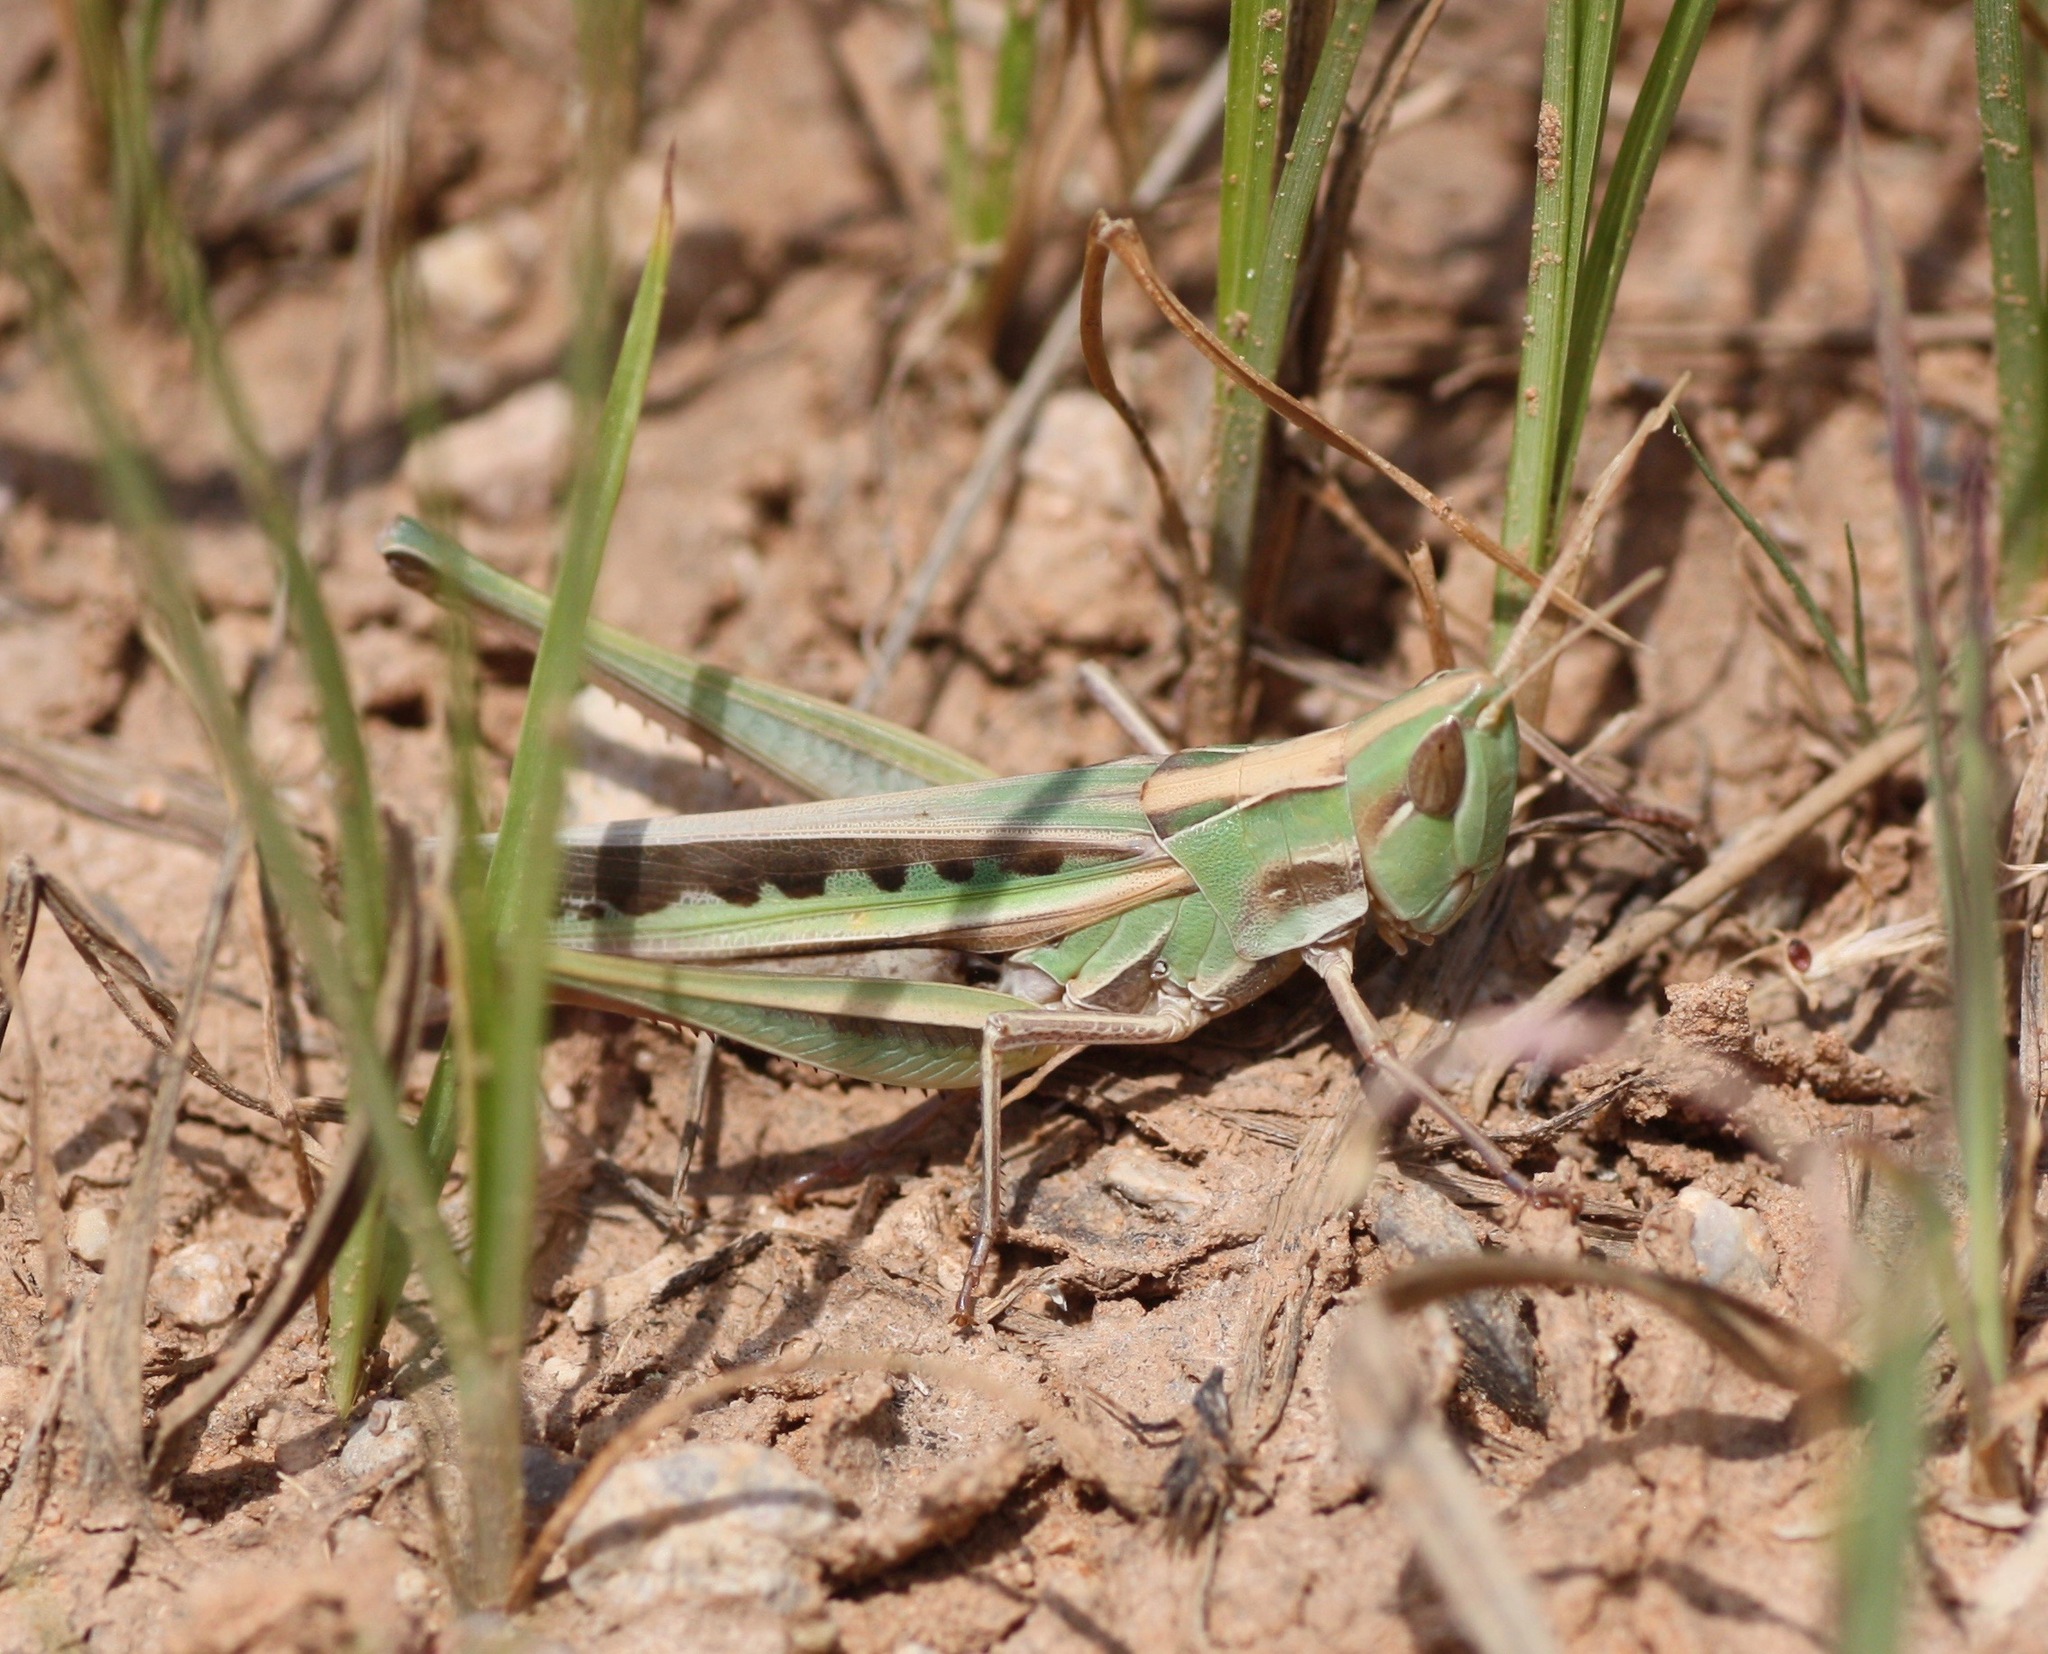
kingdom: Animalia
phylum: Arthropoda
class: Insecta
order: Orthoptera
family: Acrididae
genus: Syrbula
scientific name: Syrbula montezuma
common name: Montezuma's grasshopper
